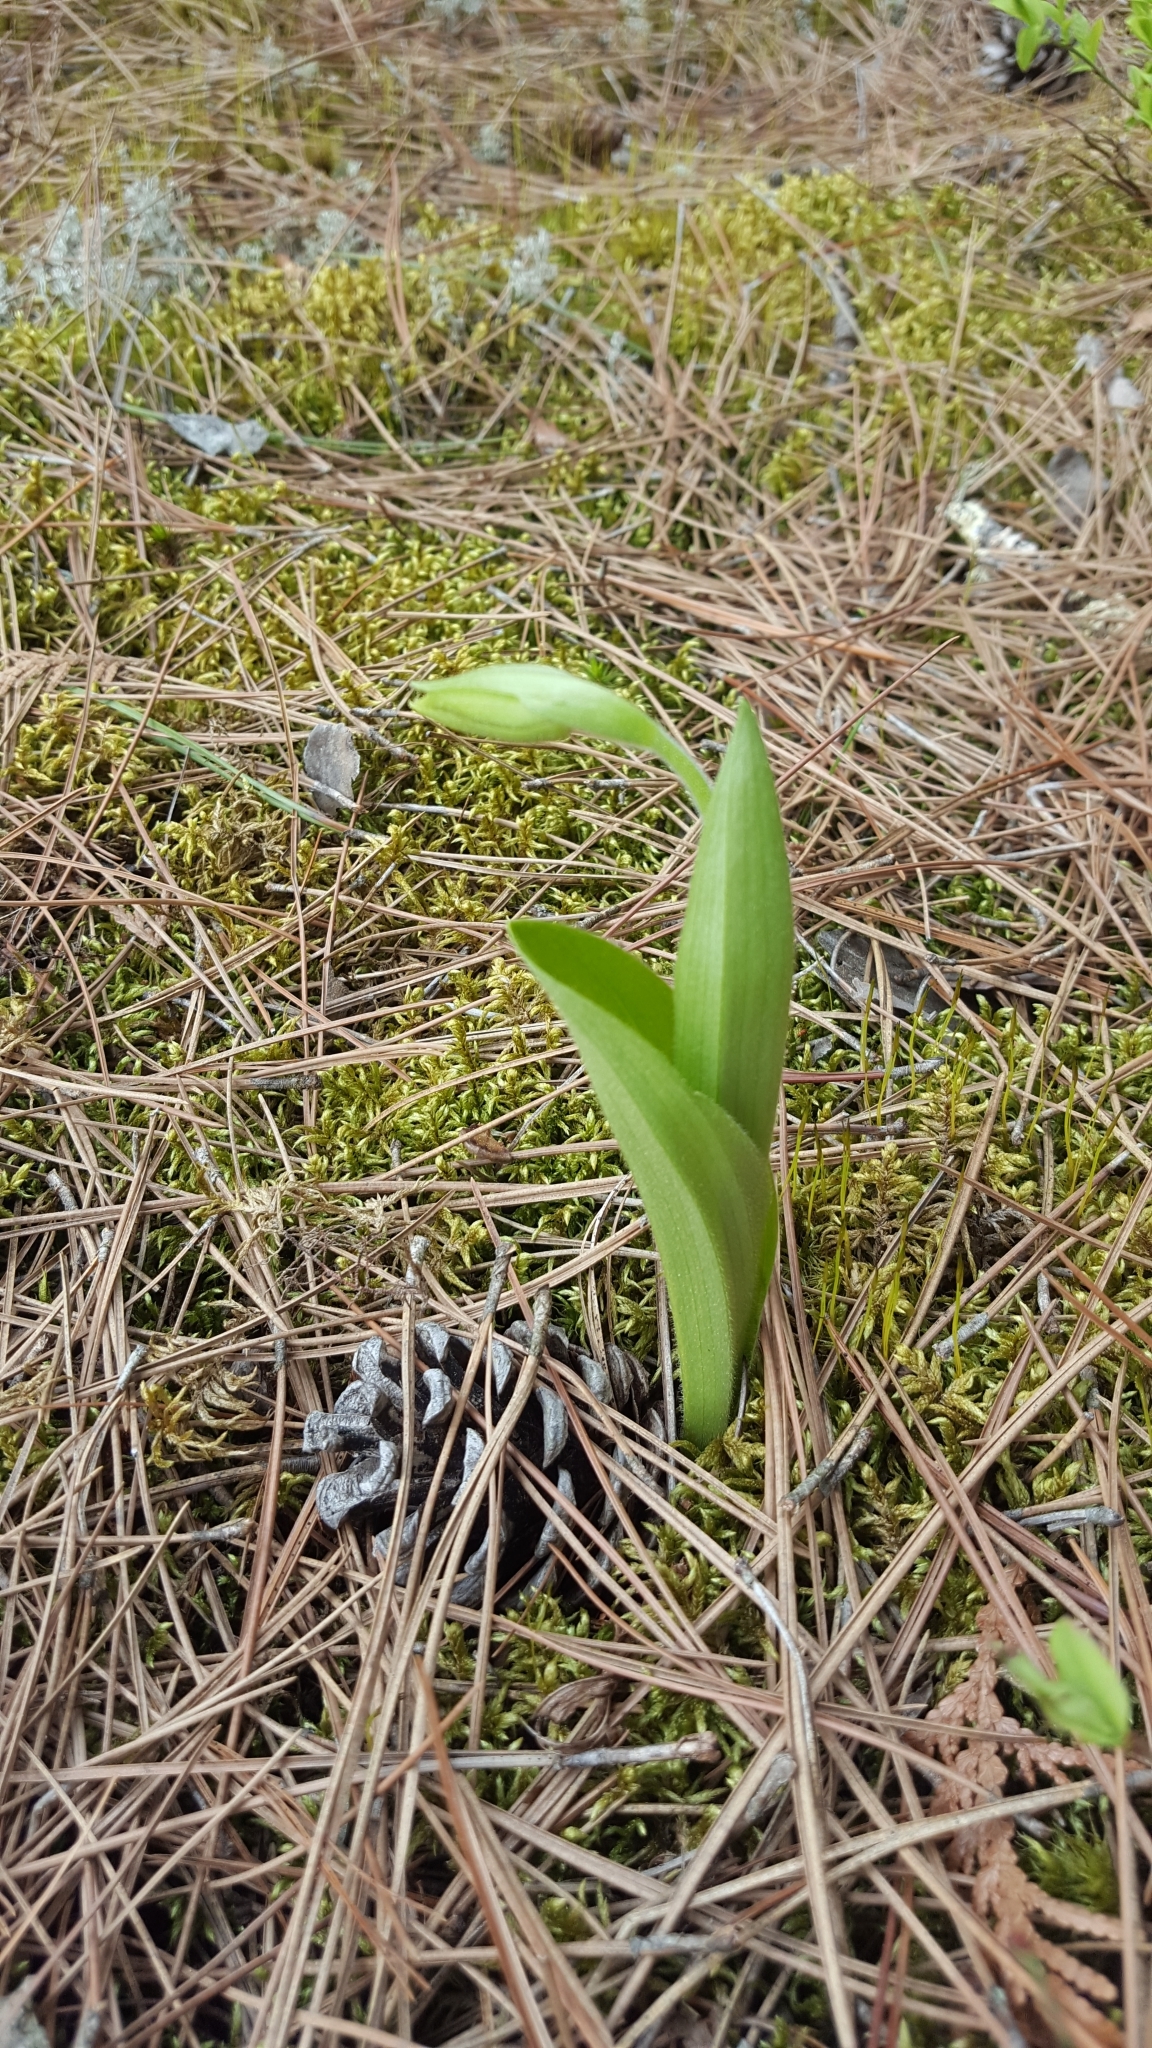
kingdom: Plantae
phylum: Tracheophyta
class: Liliopsida
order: Asparagales
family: Orchidaceae
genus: Cypripedium
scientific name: Cypripedium acaule
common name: Pink lady's-slipper
